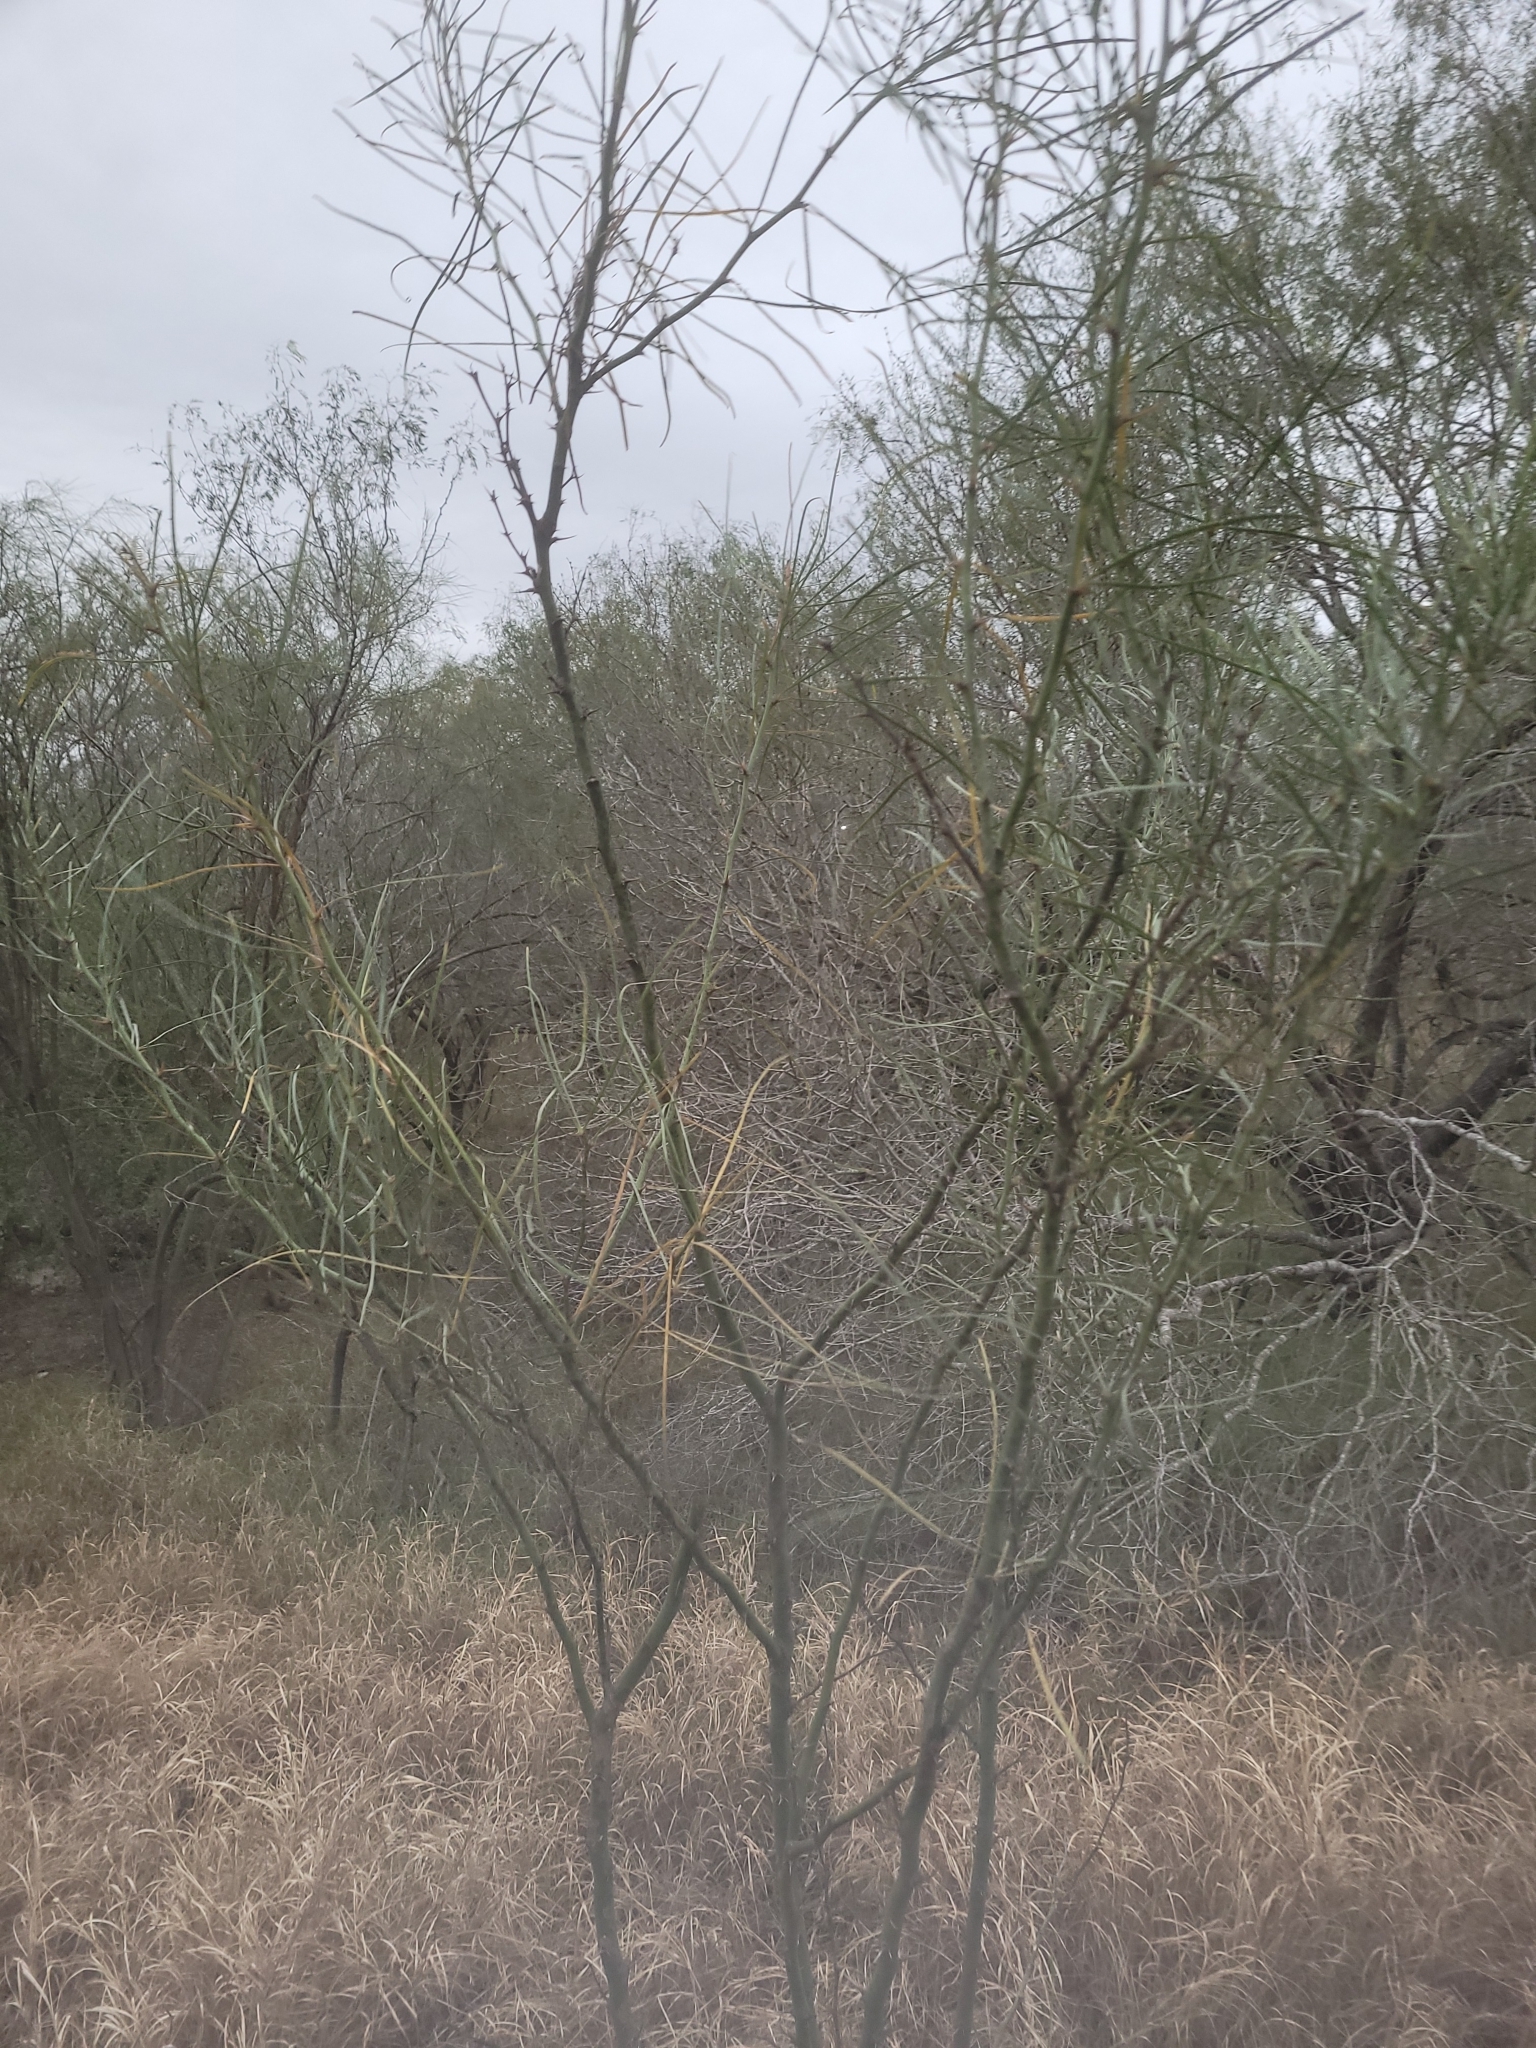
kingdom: Plantae
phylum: Tracheophyta
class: Magnoliopsida
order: Fabales
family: Fabaceae
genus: Parkinsonia
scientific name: Parkinsonia aculeata
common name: Jerusalem thorn
